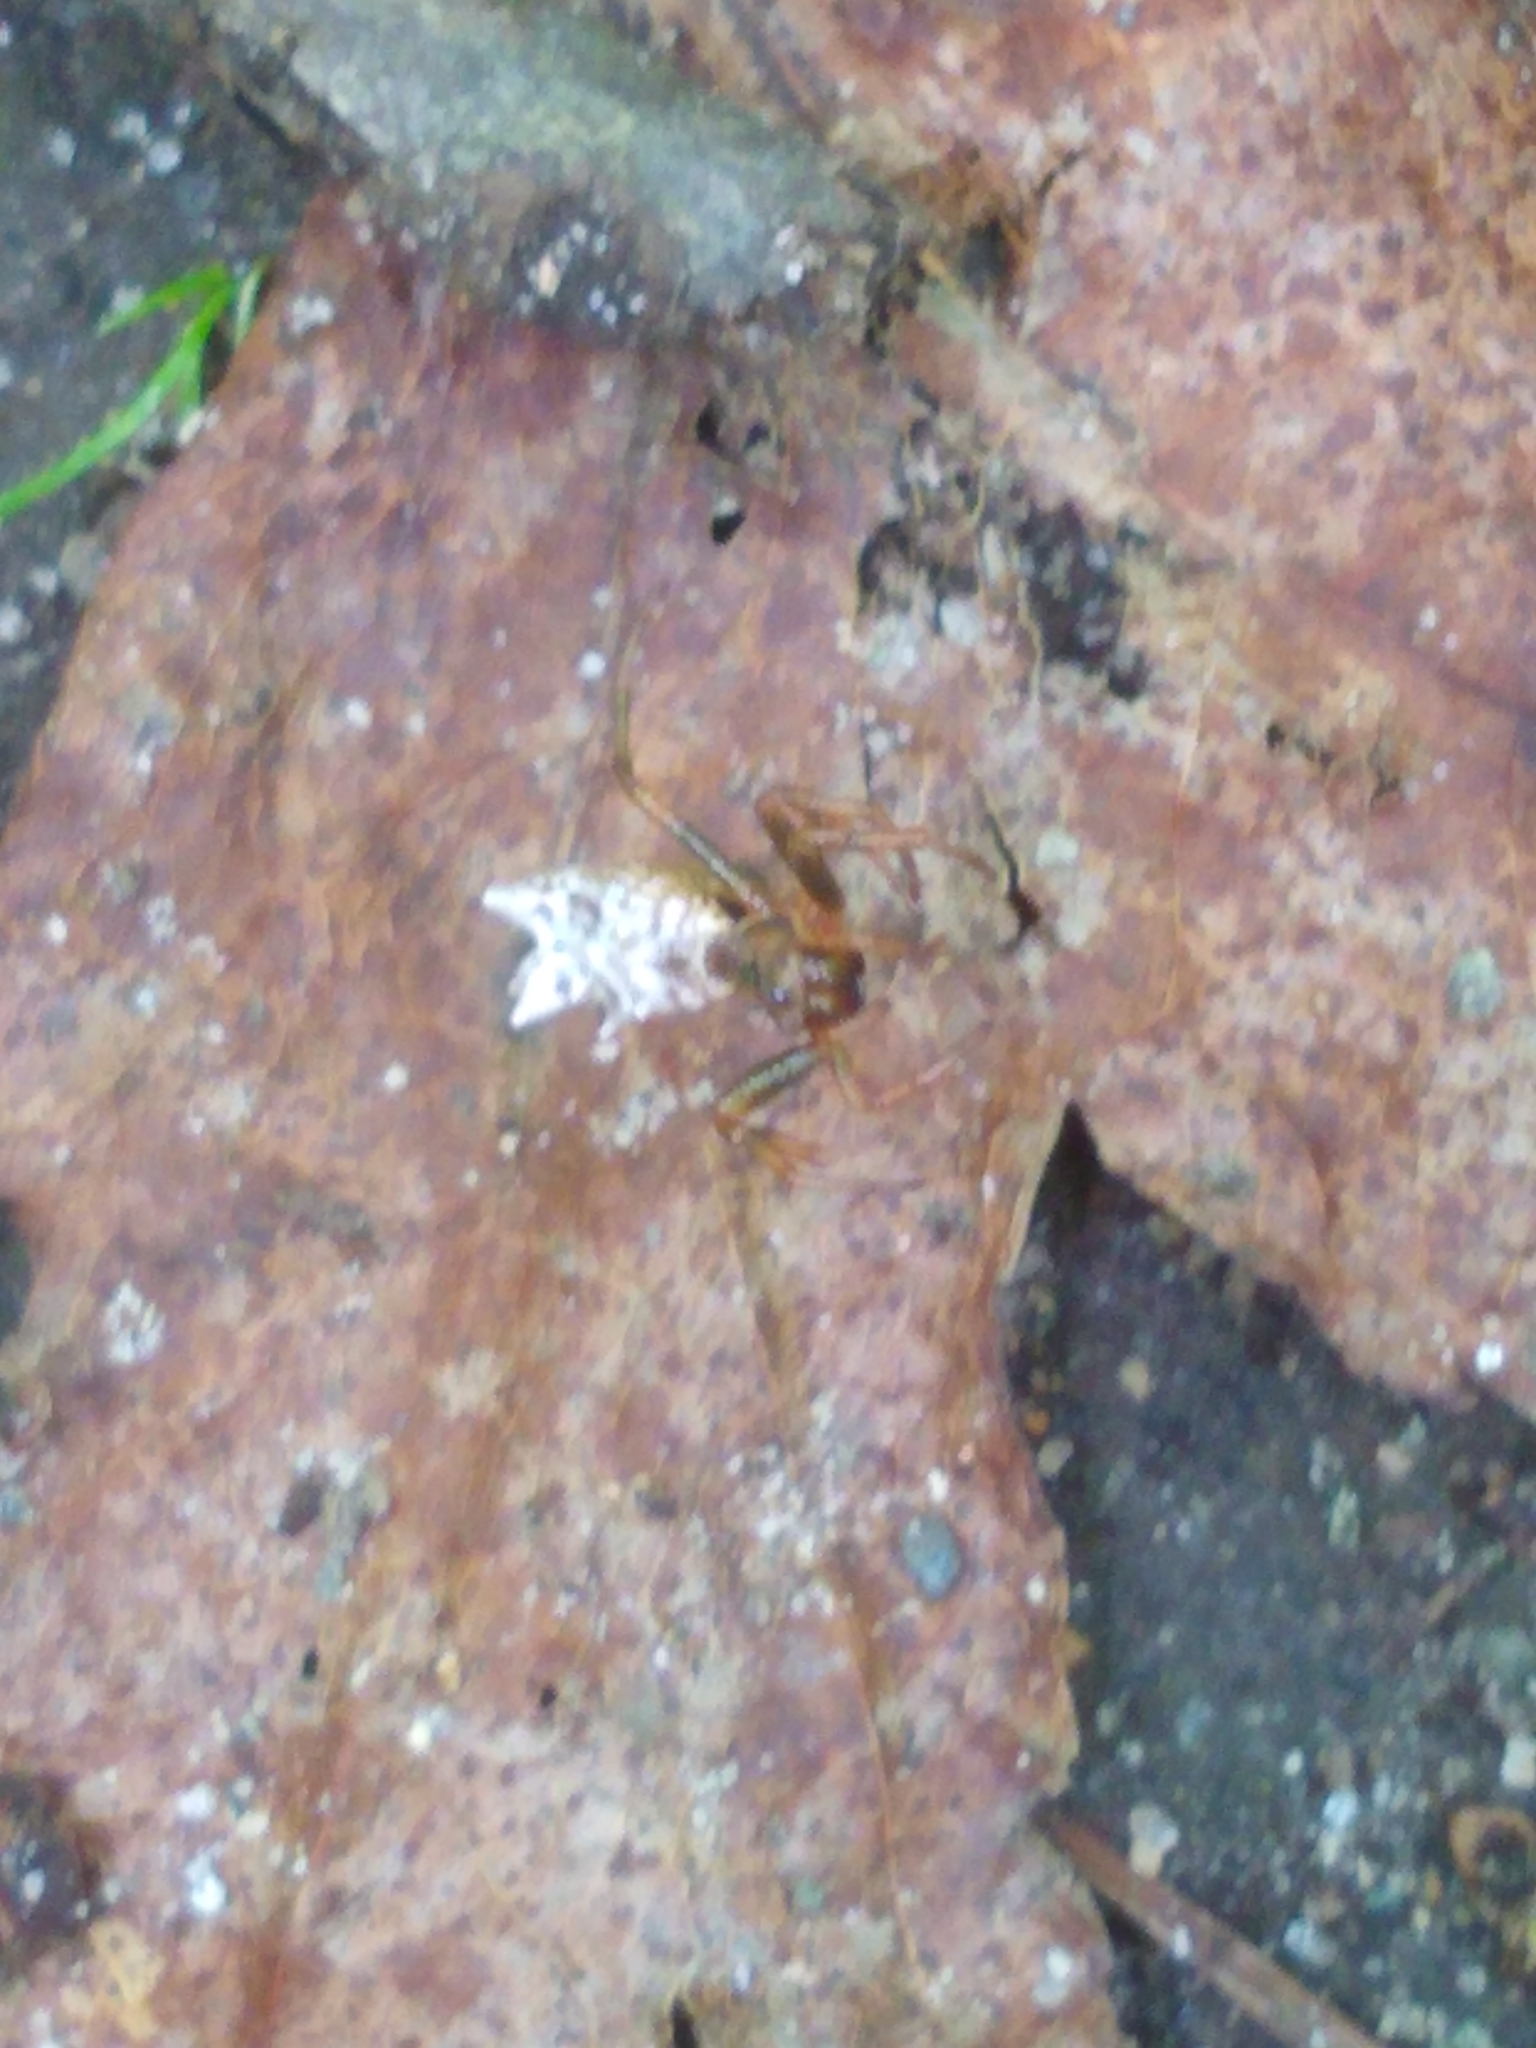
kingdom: Animalia
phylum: Arthropoda
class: Arachnida
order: Araneae
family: Araneidae
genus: Micrathena
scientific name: Micrathena gracilis
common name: Orb weavers
